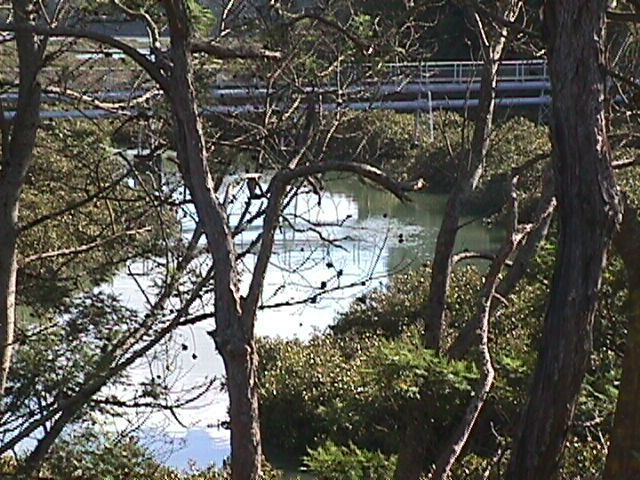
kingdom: Plantae
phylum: Tracheophyta
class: Magnoliopsida
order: Lamiales
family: Acanthaceae
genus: Avicennia
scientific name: Avicennia marina
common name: Gray mangrove
